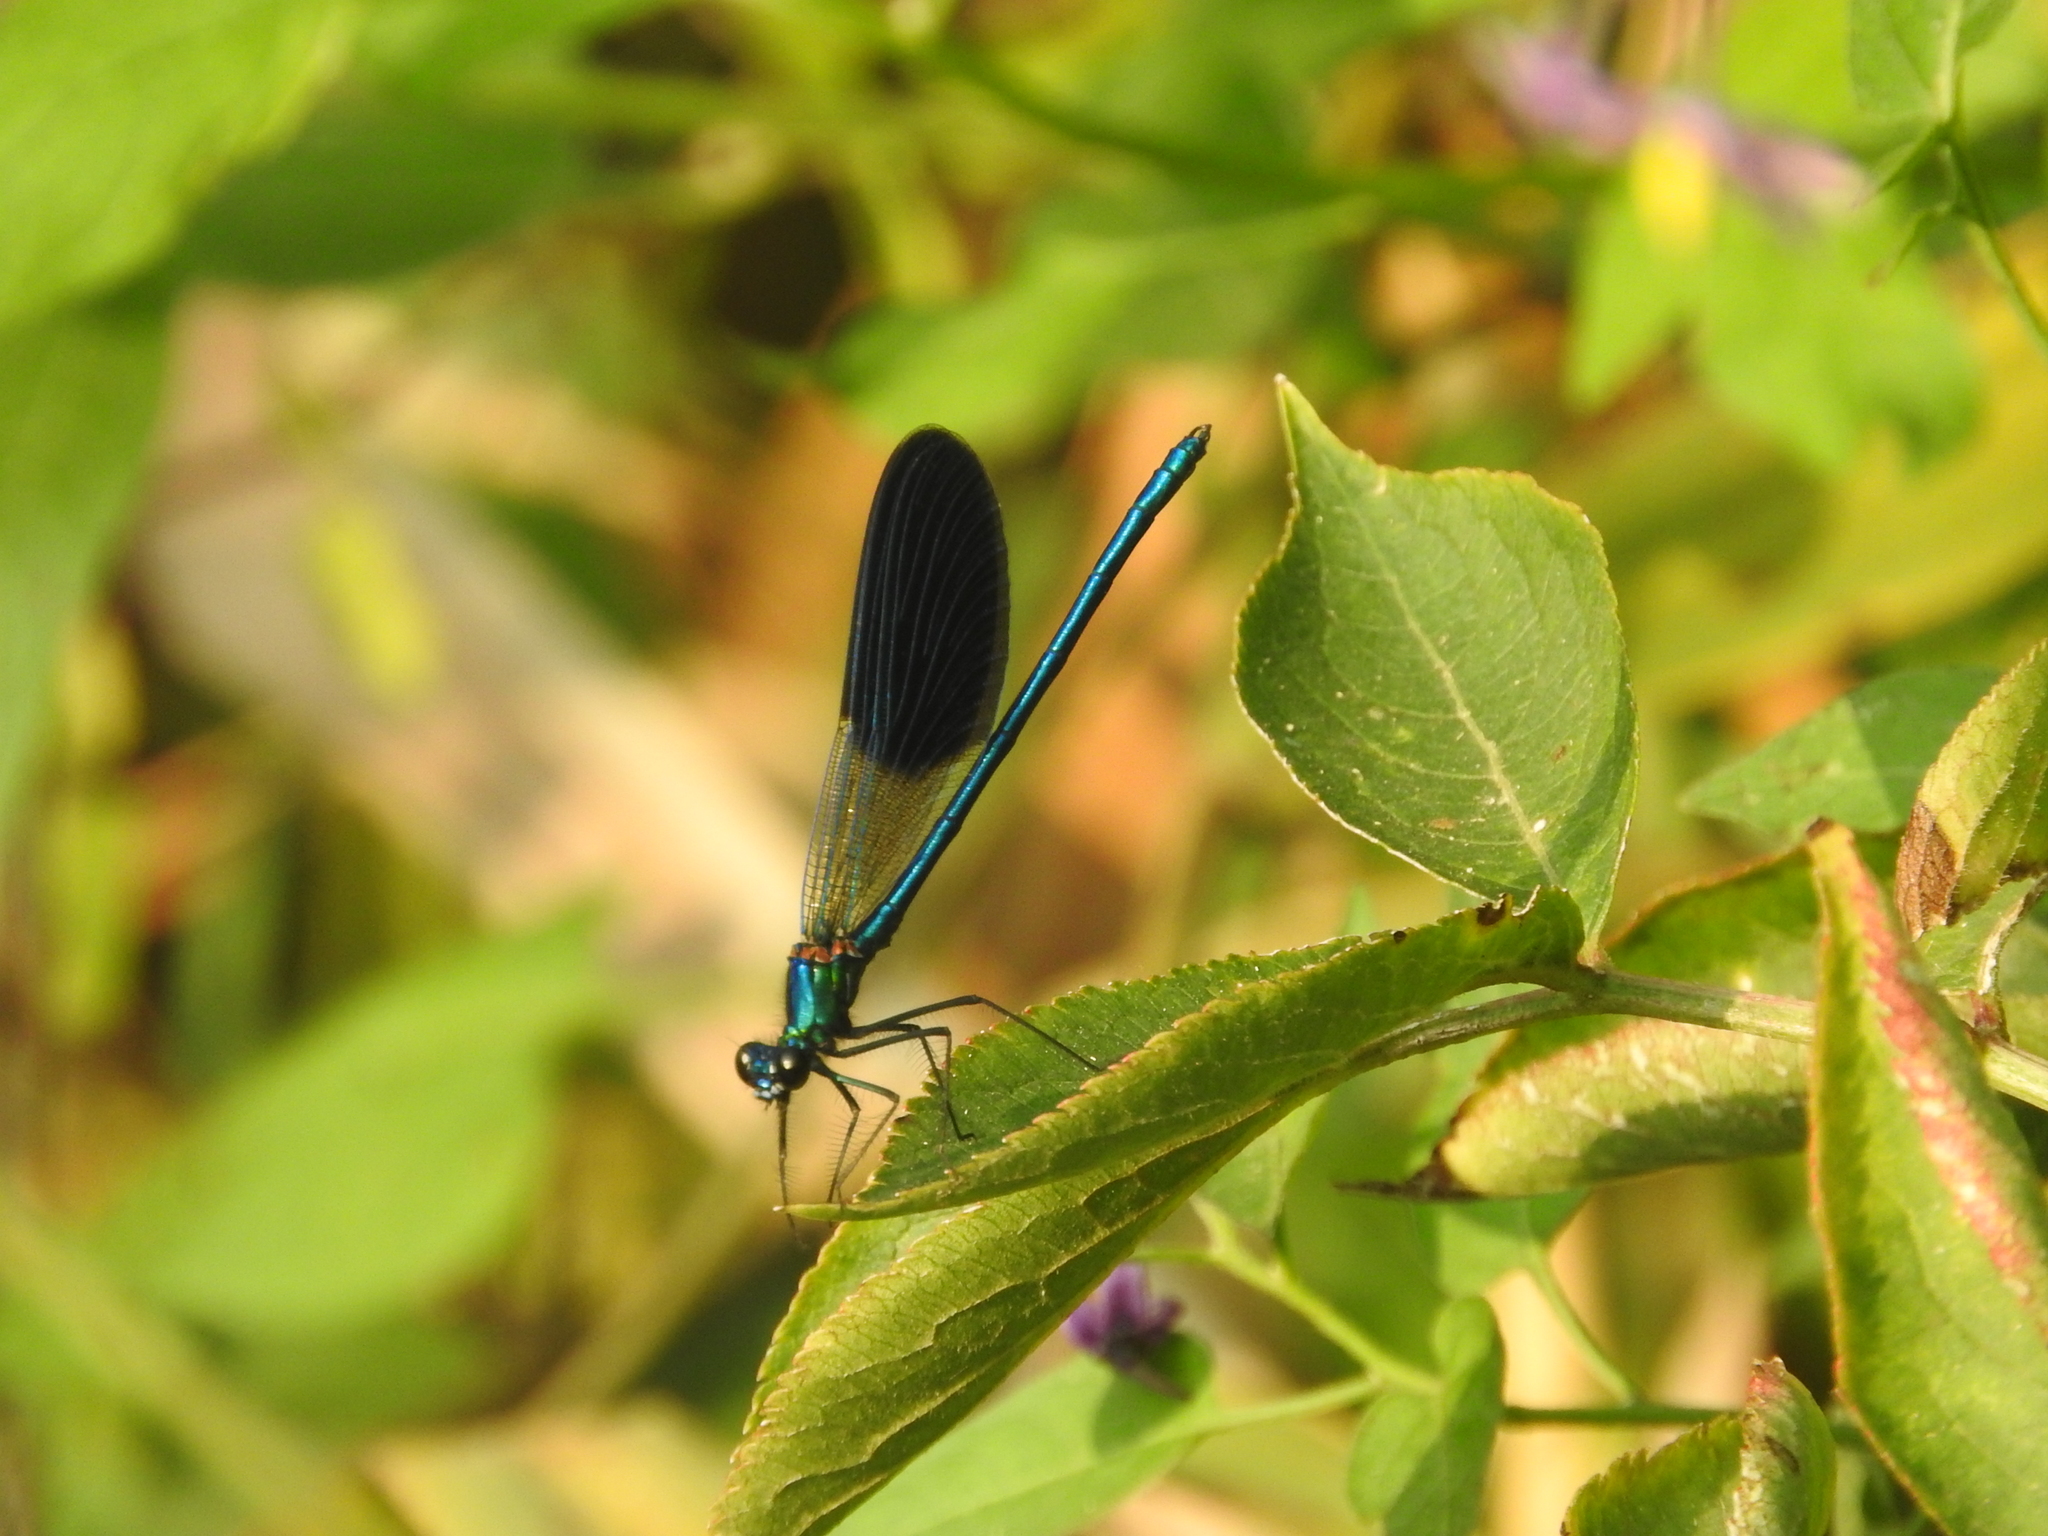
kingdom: Animalia
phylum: Arthropoda
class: Insecta
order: Odonata
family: Calopterygidae
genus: Calopteryx
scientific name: Calopteryx splendens
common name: Banded demoiselle
